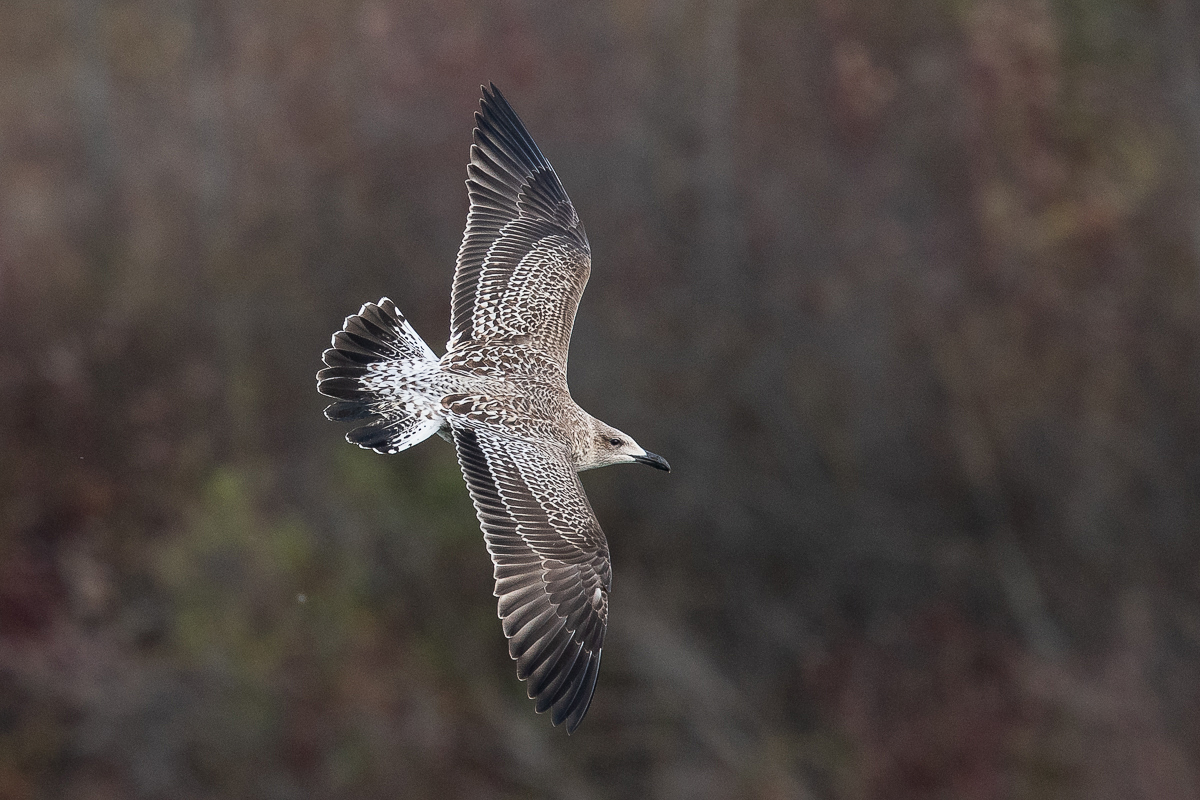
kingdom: Animalia
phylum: Chordata
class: Aves
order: Charadriiformes
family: Laridae
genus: Larus
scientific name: Larus fuscus
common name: Lesser black-backed gull
